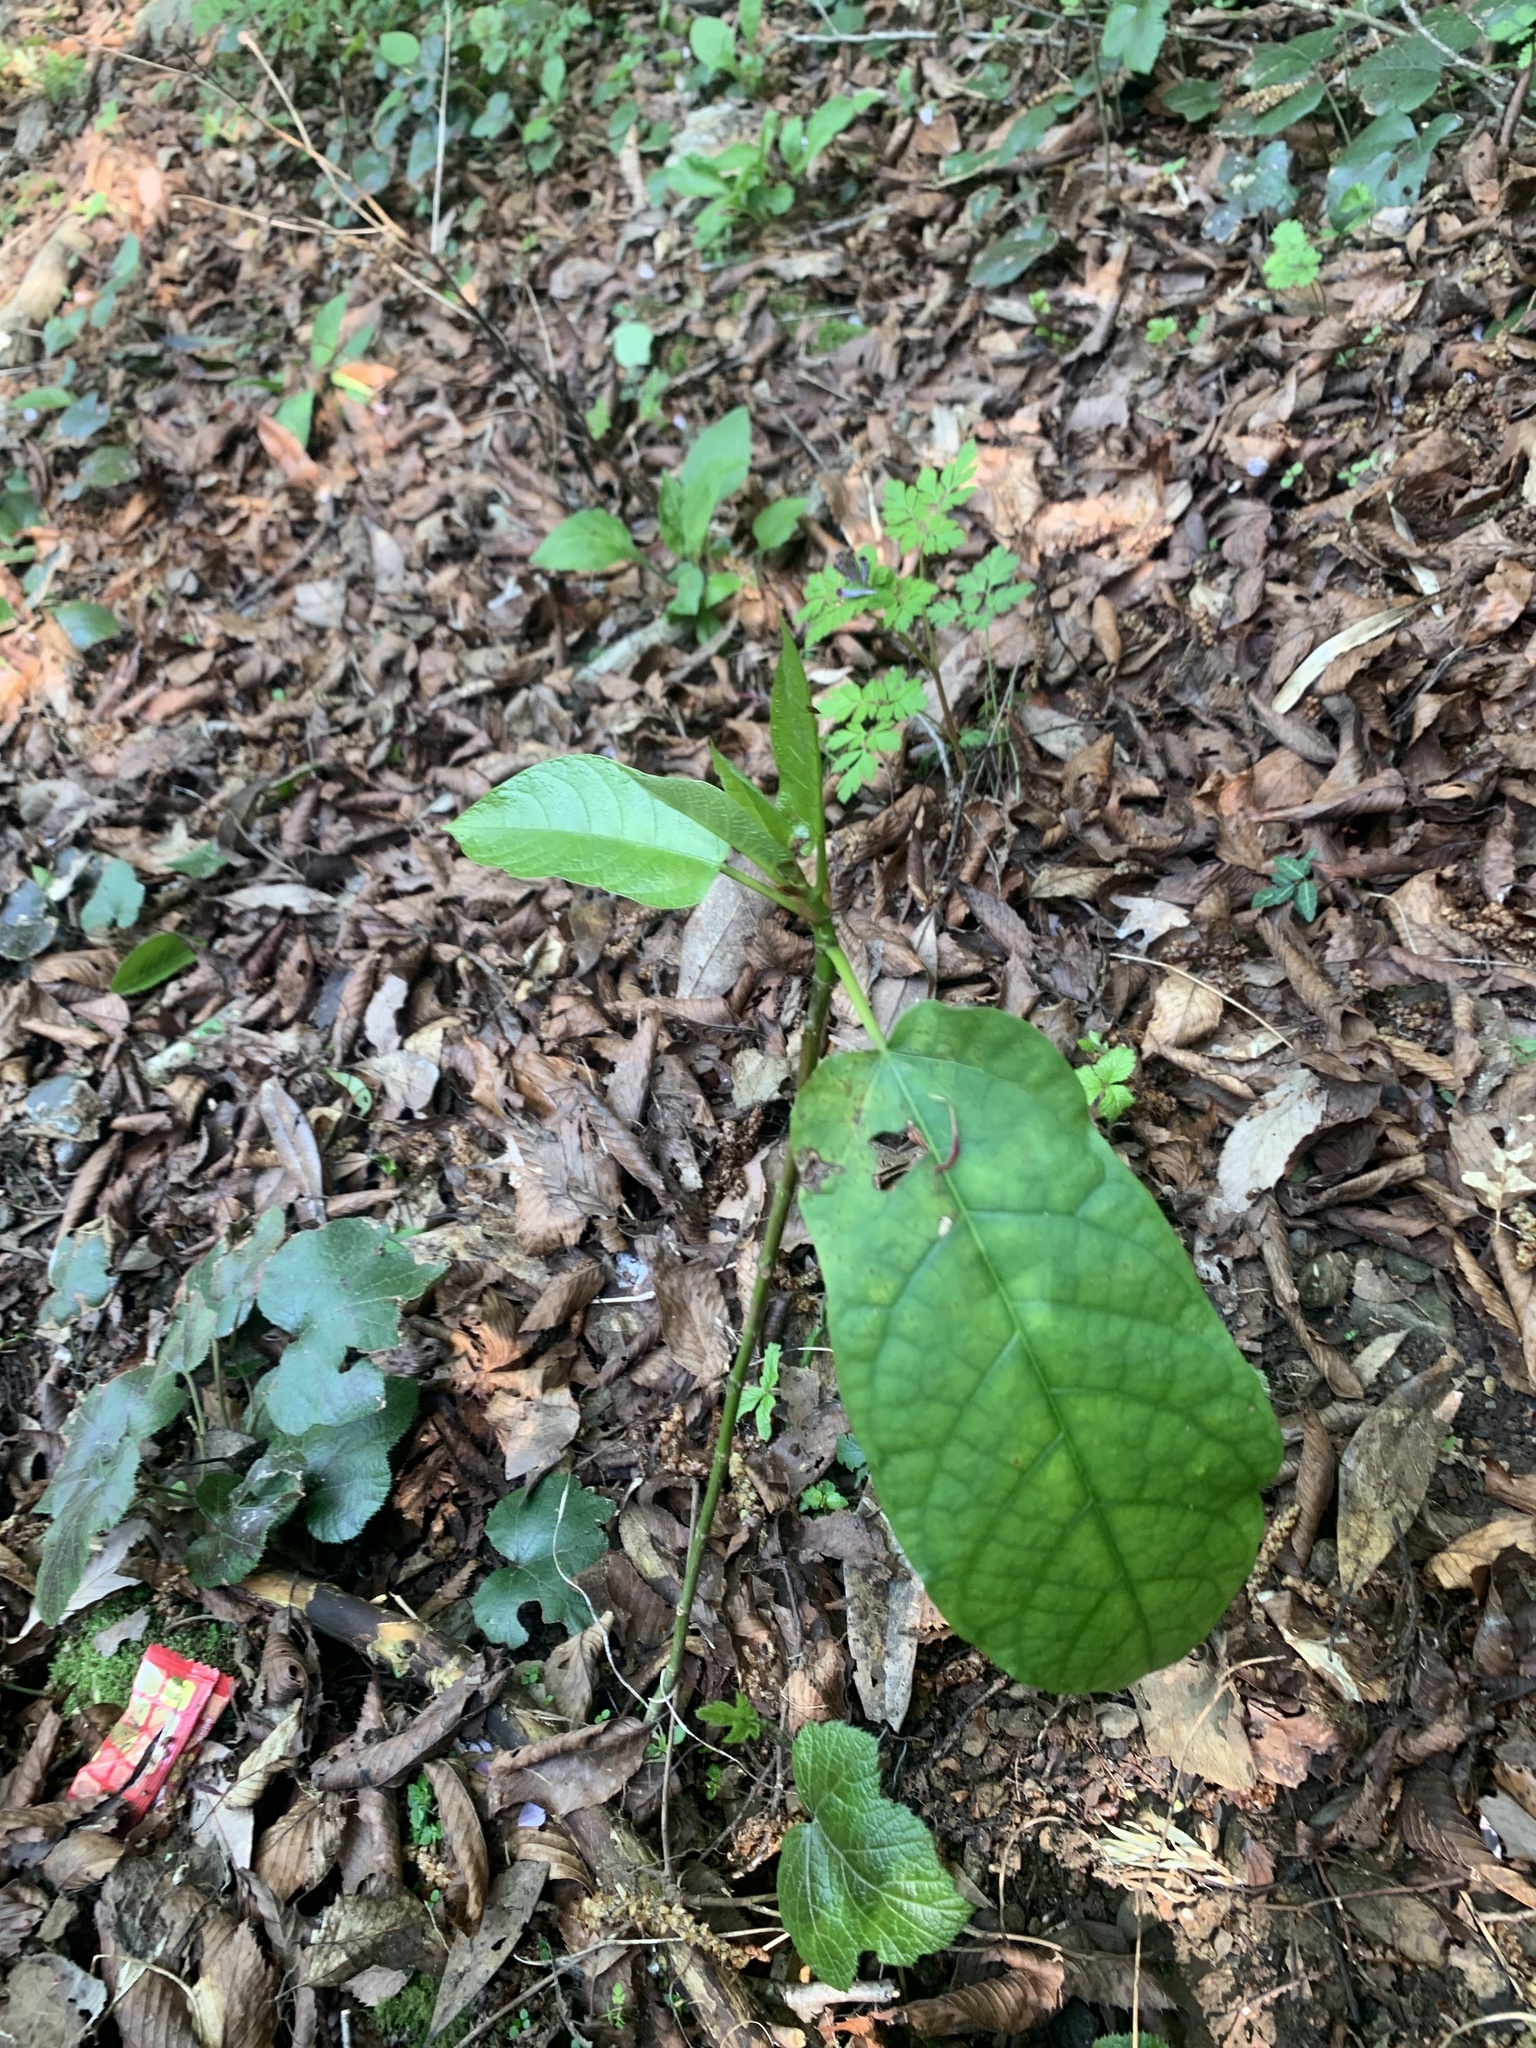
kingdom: Plantae
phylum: Tracheophyta
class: Magnoliopsida
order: Rosales
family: Moraceae
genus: Ficus
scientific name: Ficus erecta
